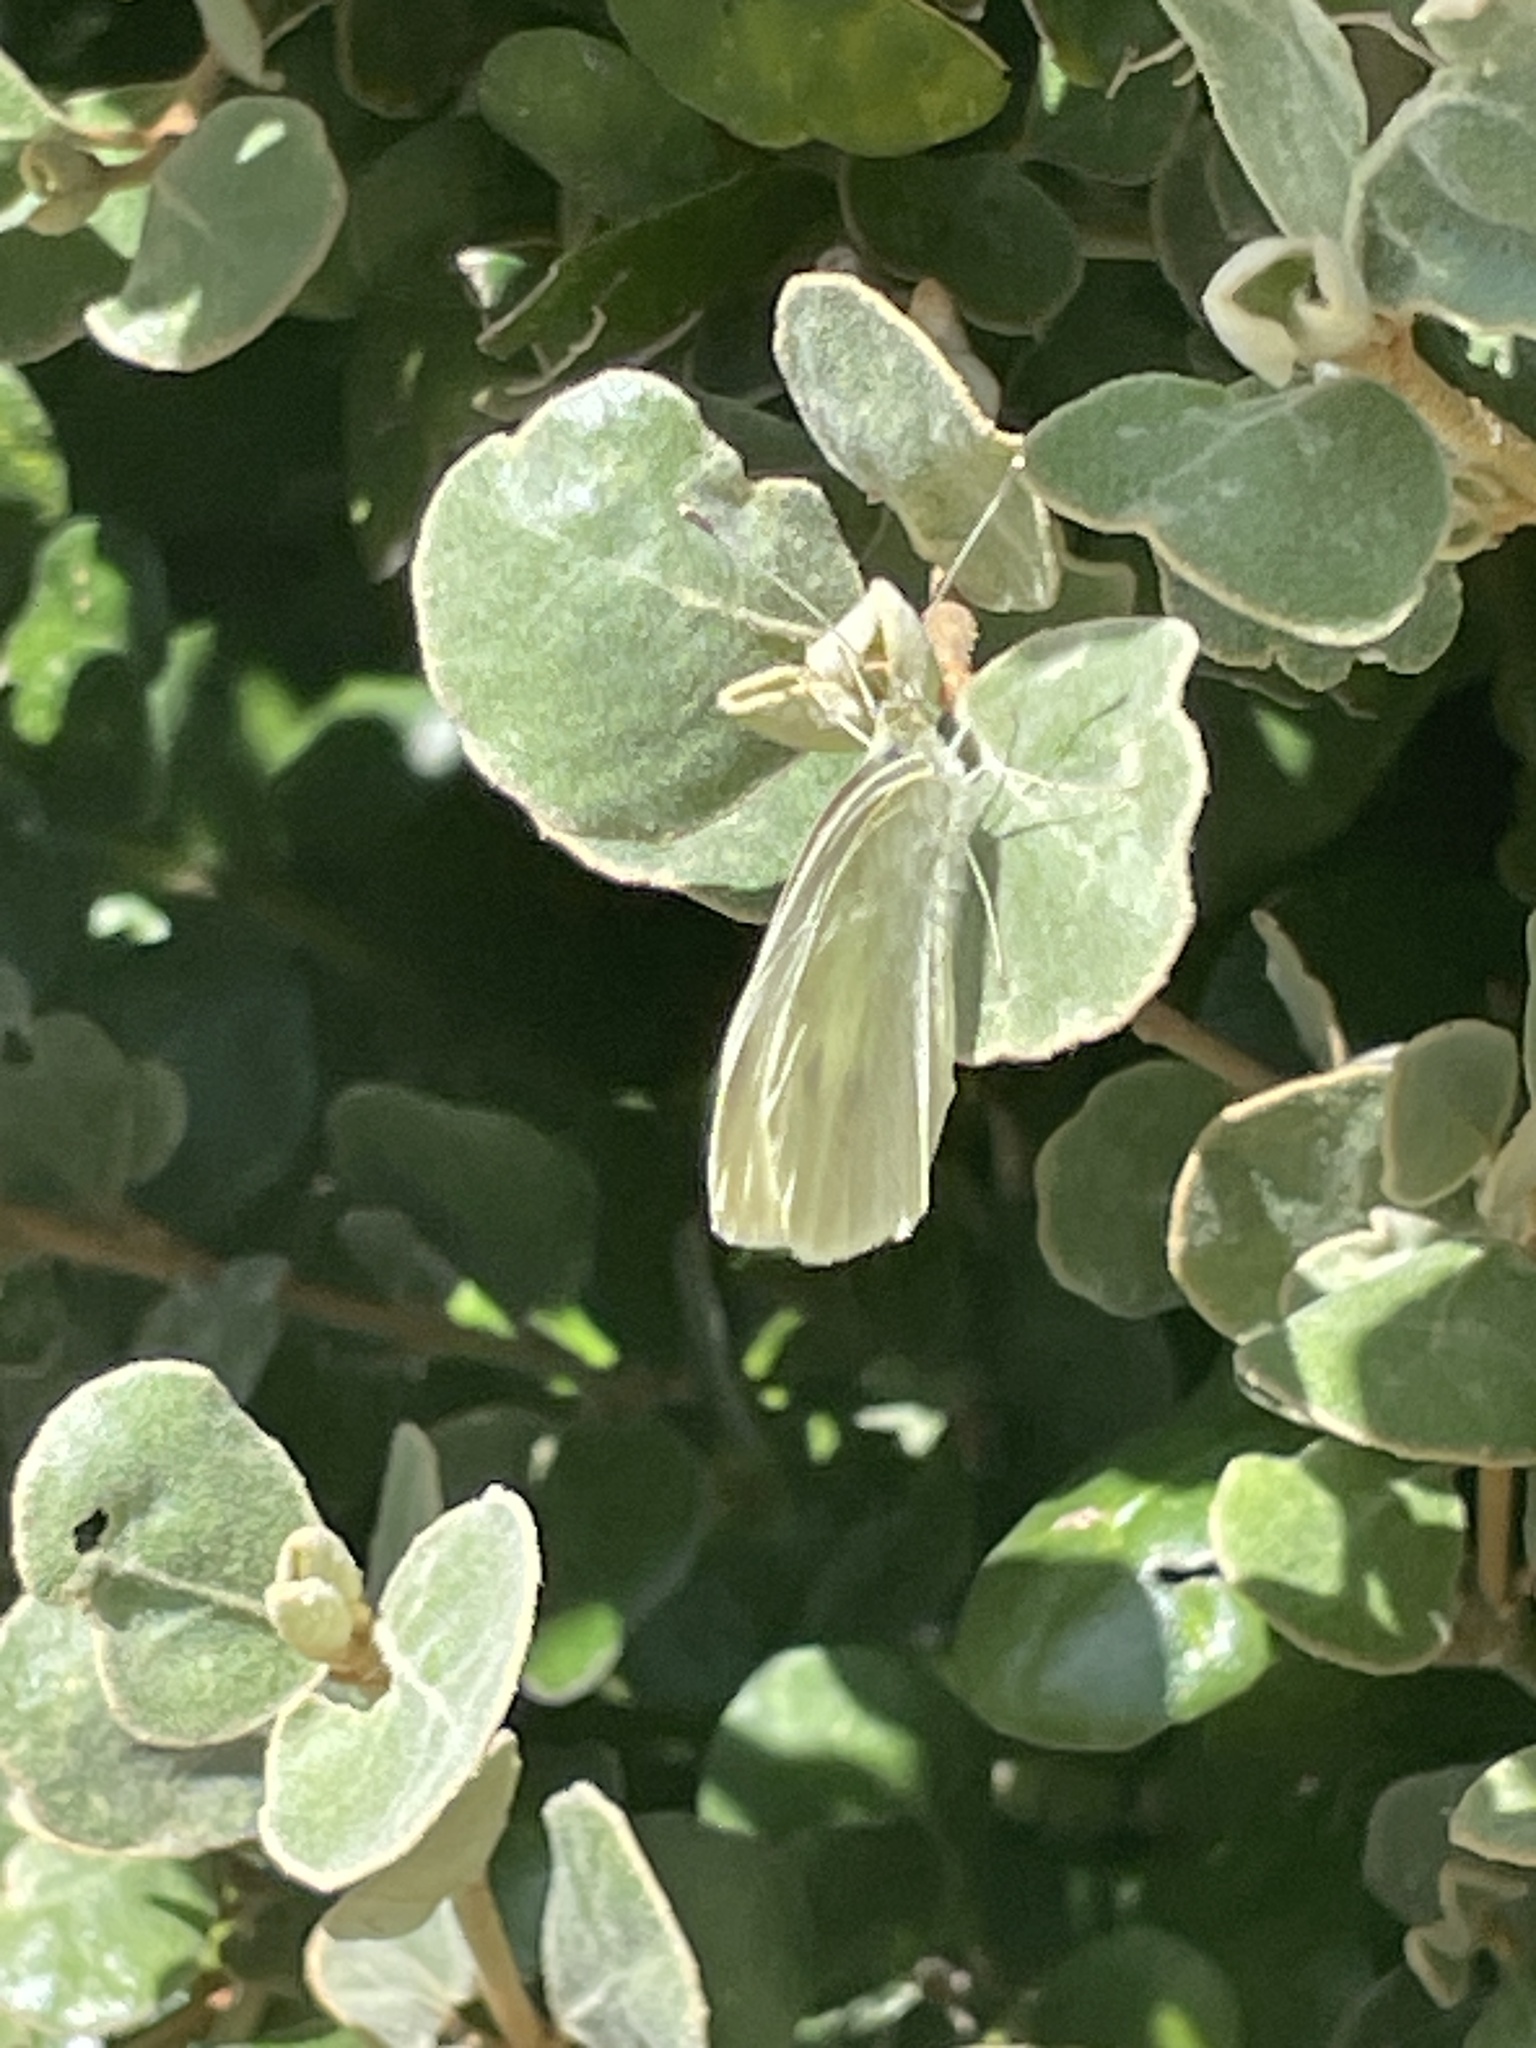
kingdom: Animalia
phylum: Arthropoda
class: Insecta
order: Lepidoptera
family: Pieridae
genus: Pieris
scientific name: Pieris rapae
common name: Small white
